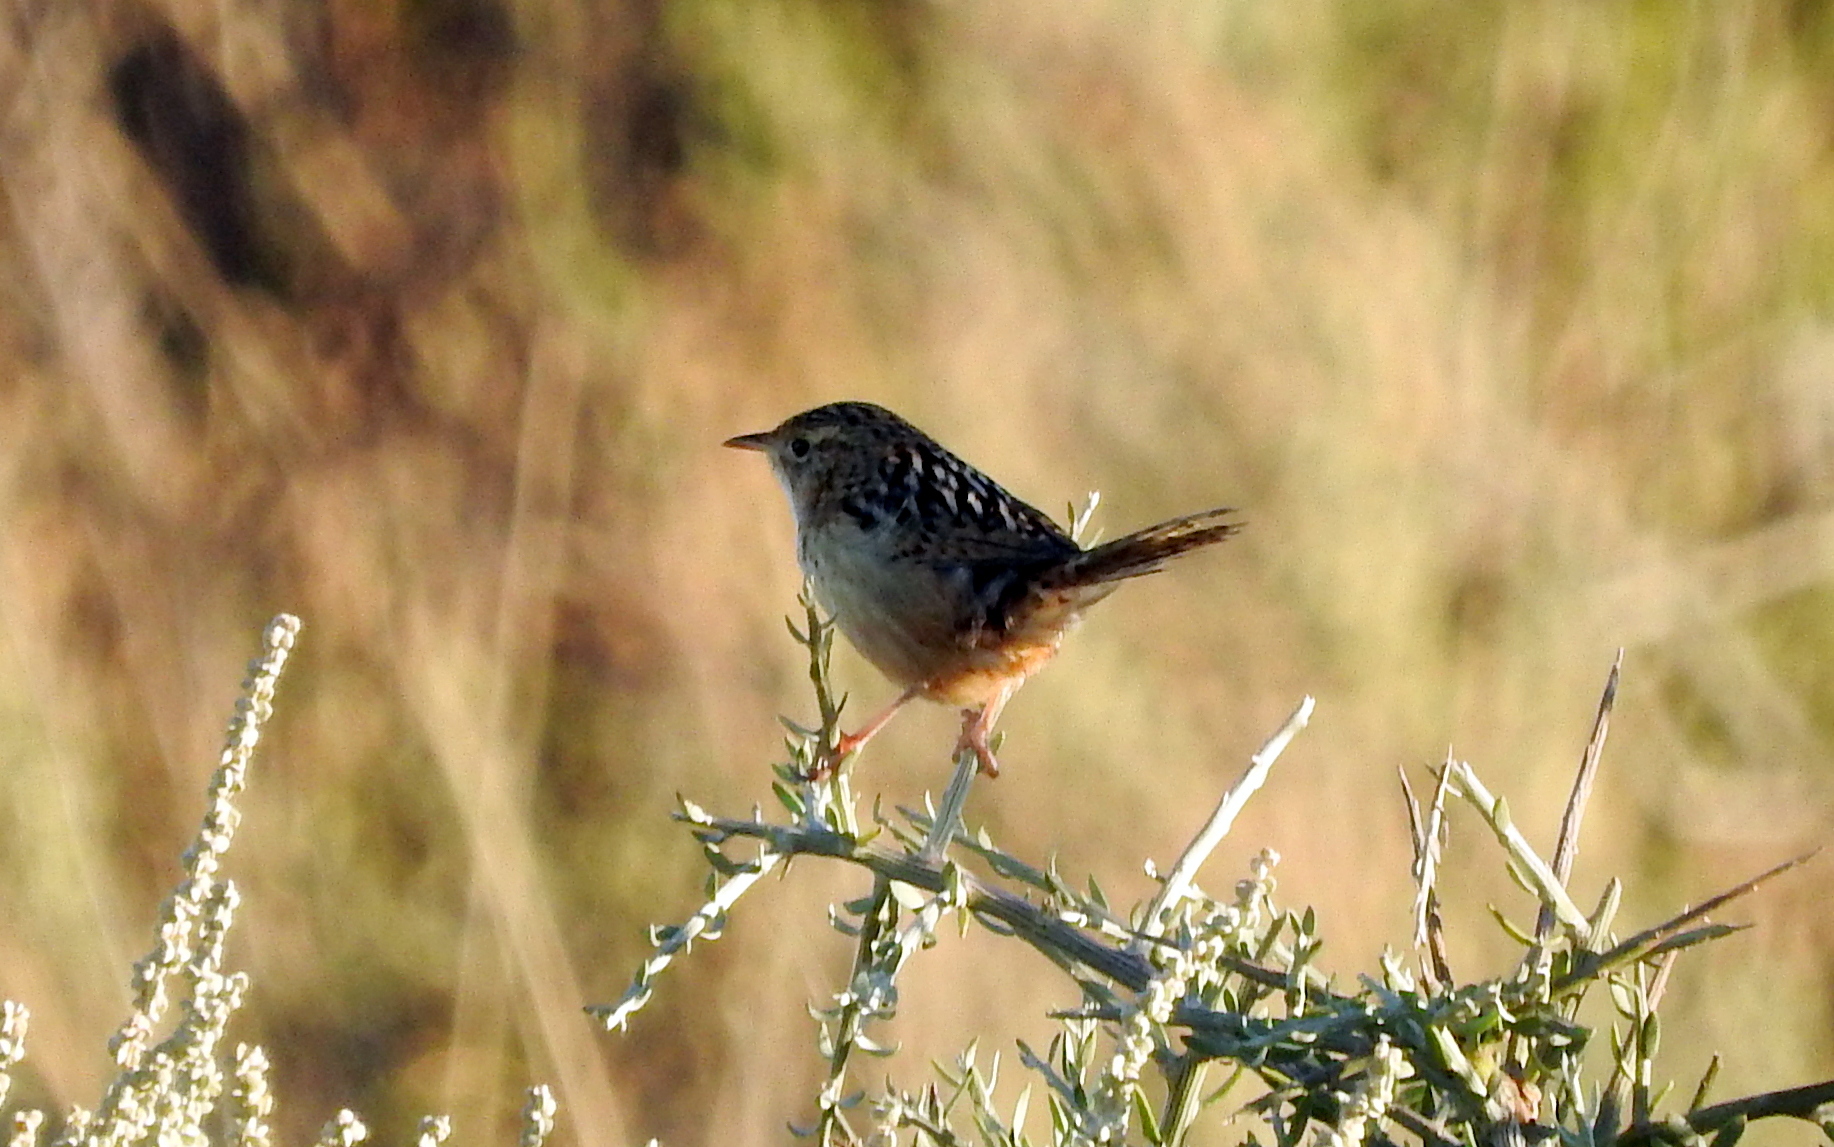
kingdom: Animalia
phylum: Chordata
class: Aves
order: Passeriformes
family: Troglodytidae
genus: Cistothorus
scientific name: Cistothorus platensis
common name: Sedge wren
